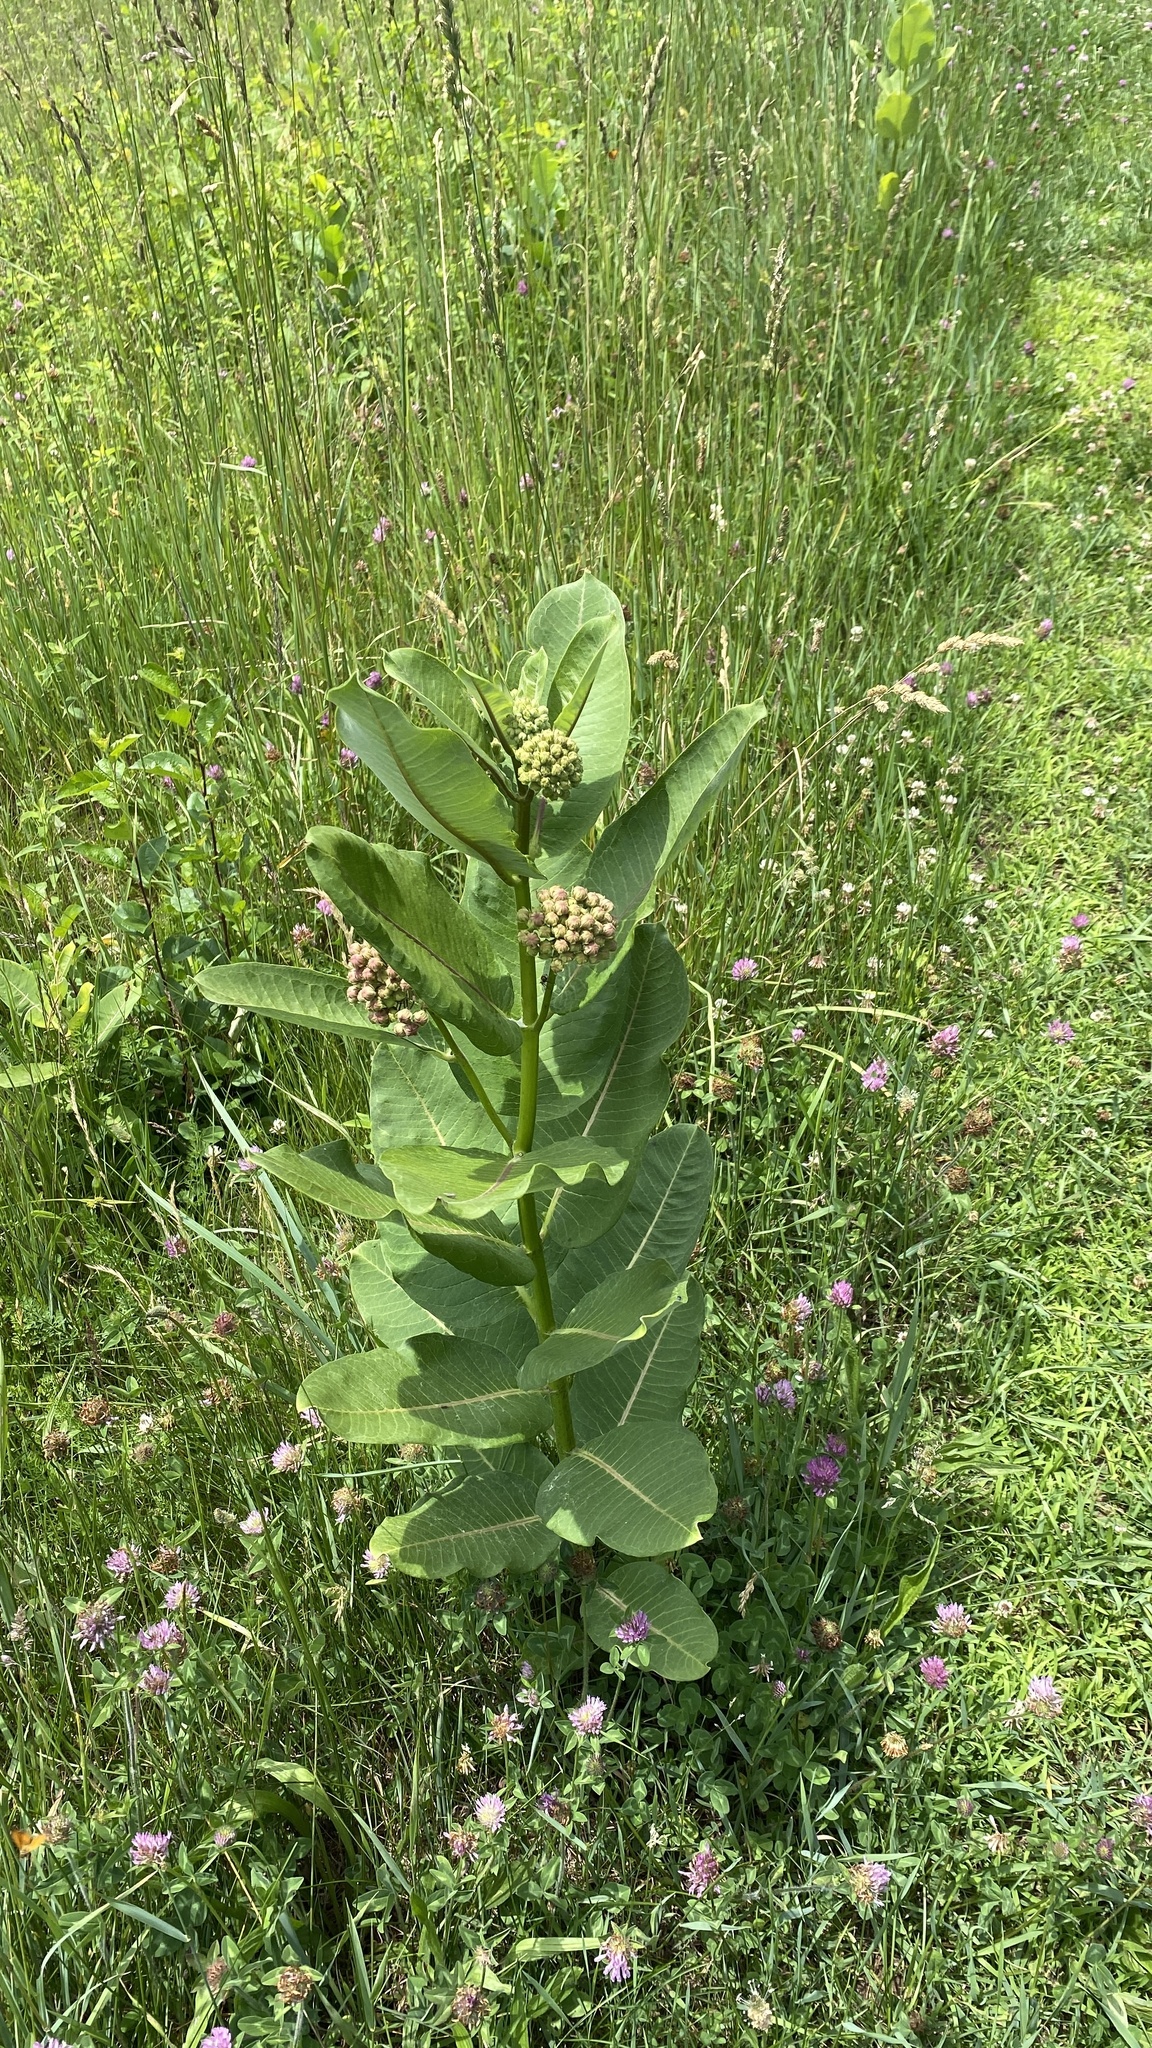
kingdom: Plantae
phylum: Tracheophyta
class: Magnoliopsida
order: Gentianales
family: Apocynaceae
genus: Asclepias
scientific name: Asclepias syriaca
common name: Common milkweed
